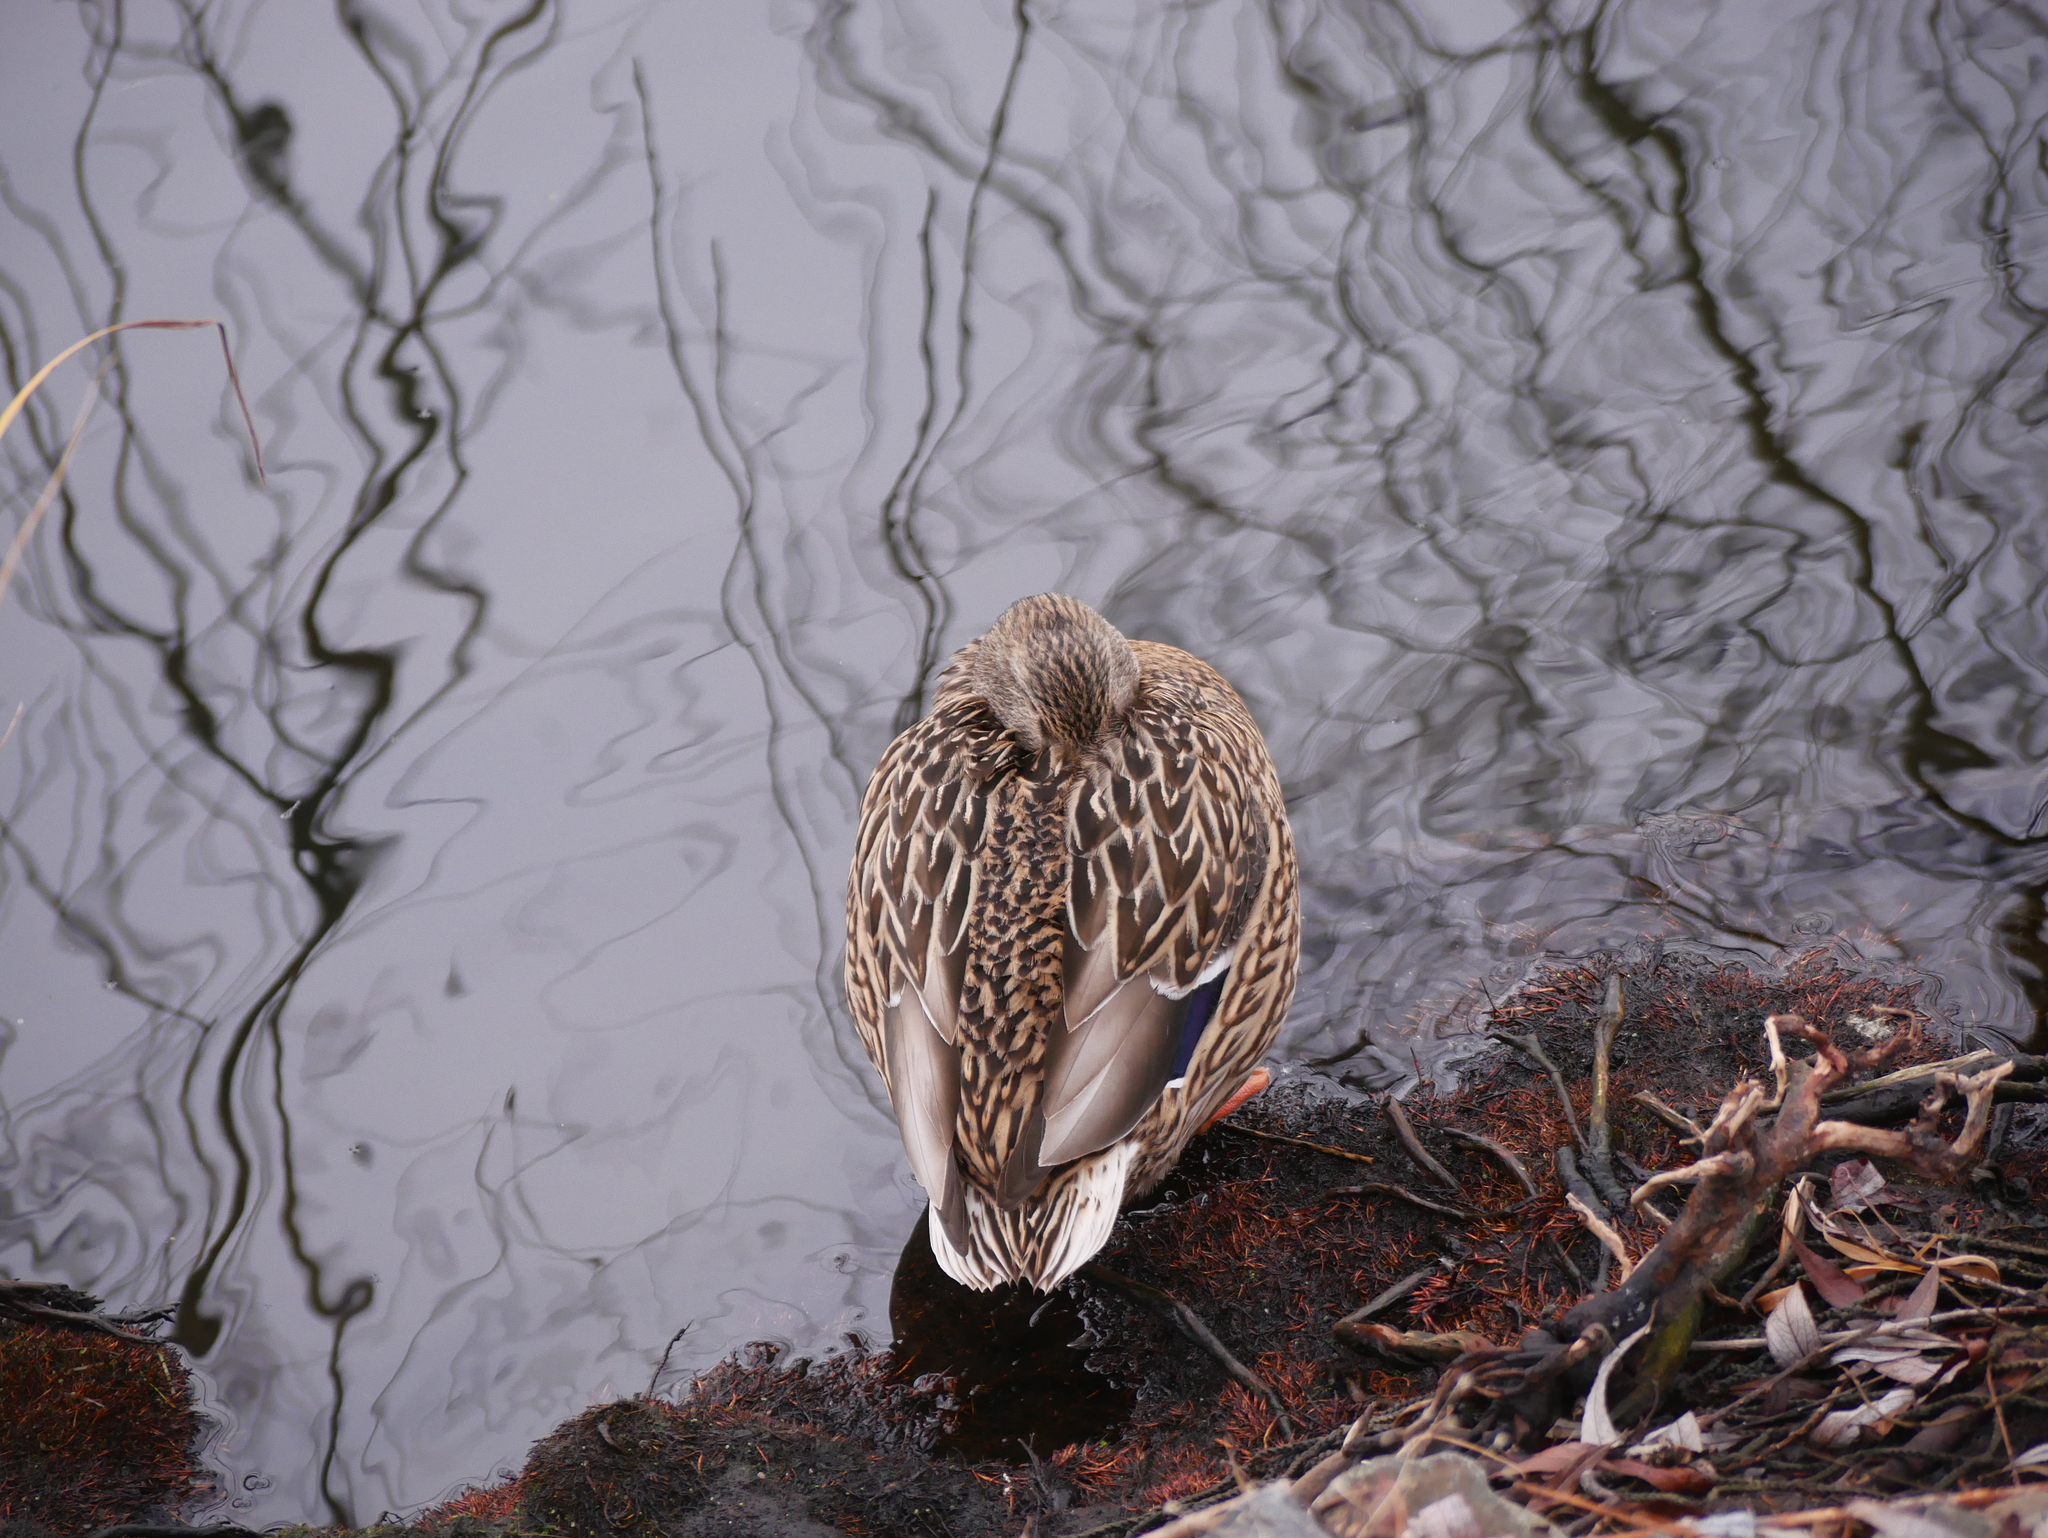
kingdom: Animalia
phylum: Chordata
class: Aves
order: Anseriformes
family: Anatidae
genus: Anas
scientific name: Anas platyrhynchos
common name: Mallard
